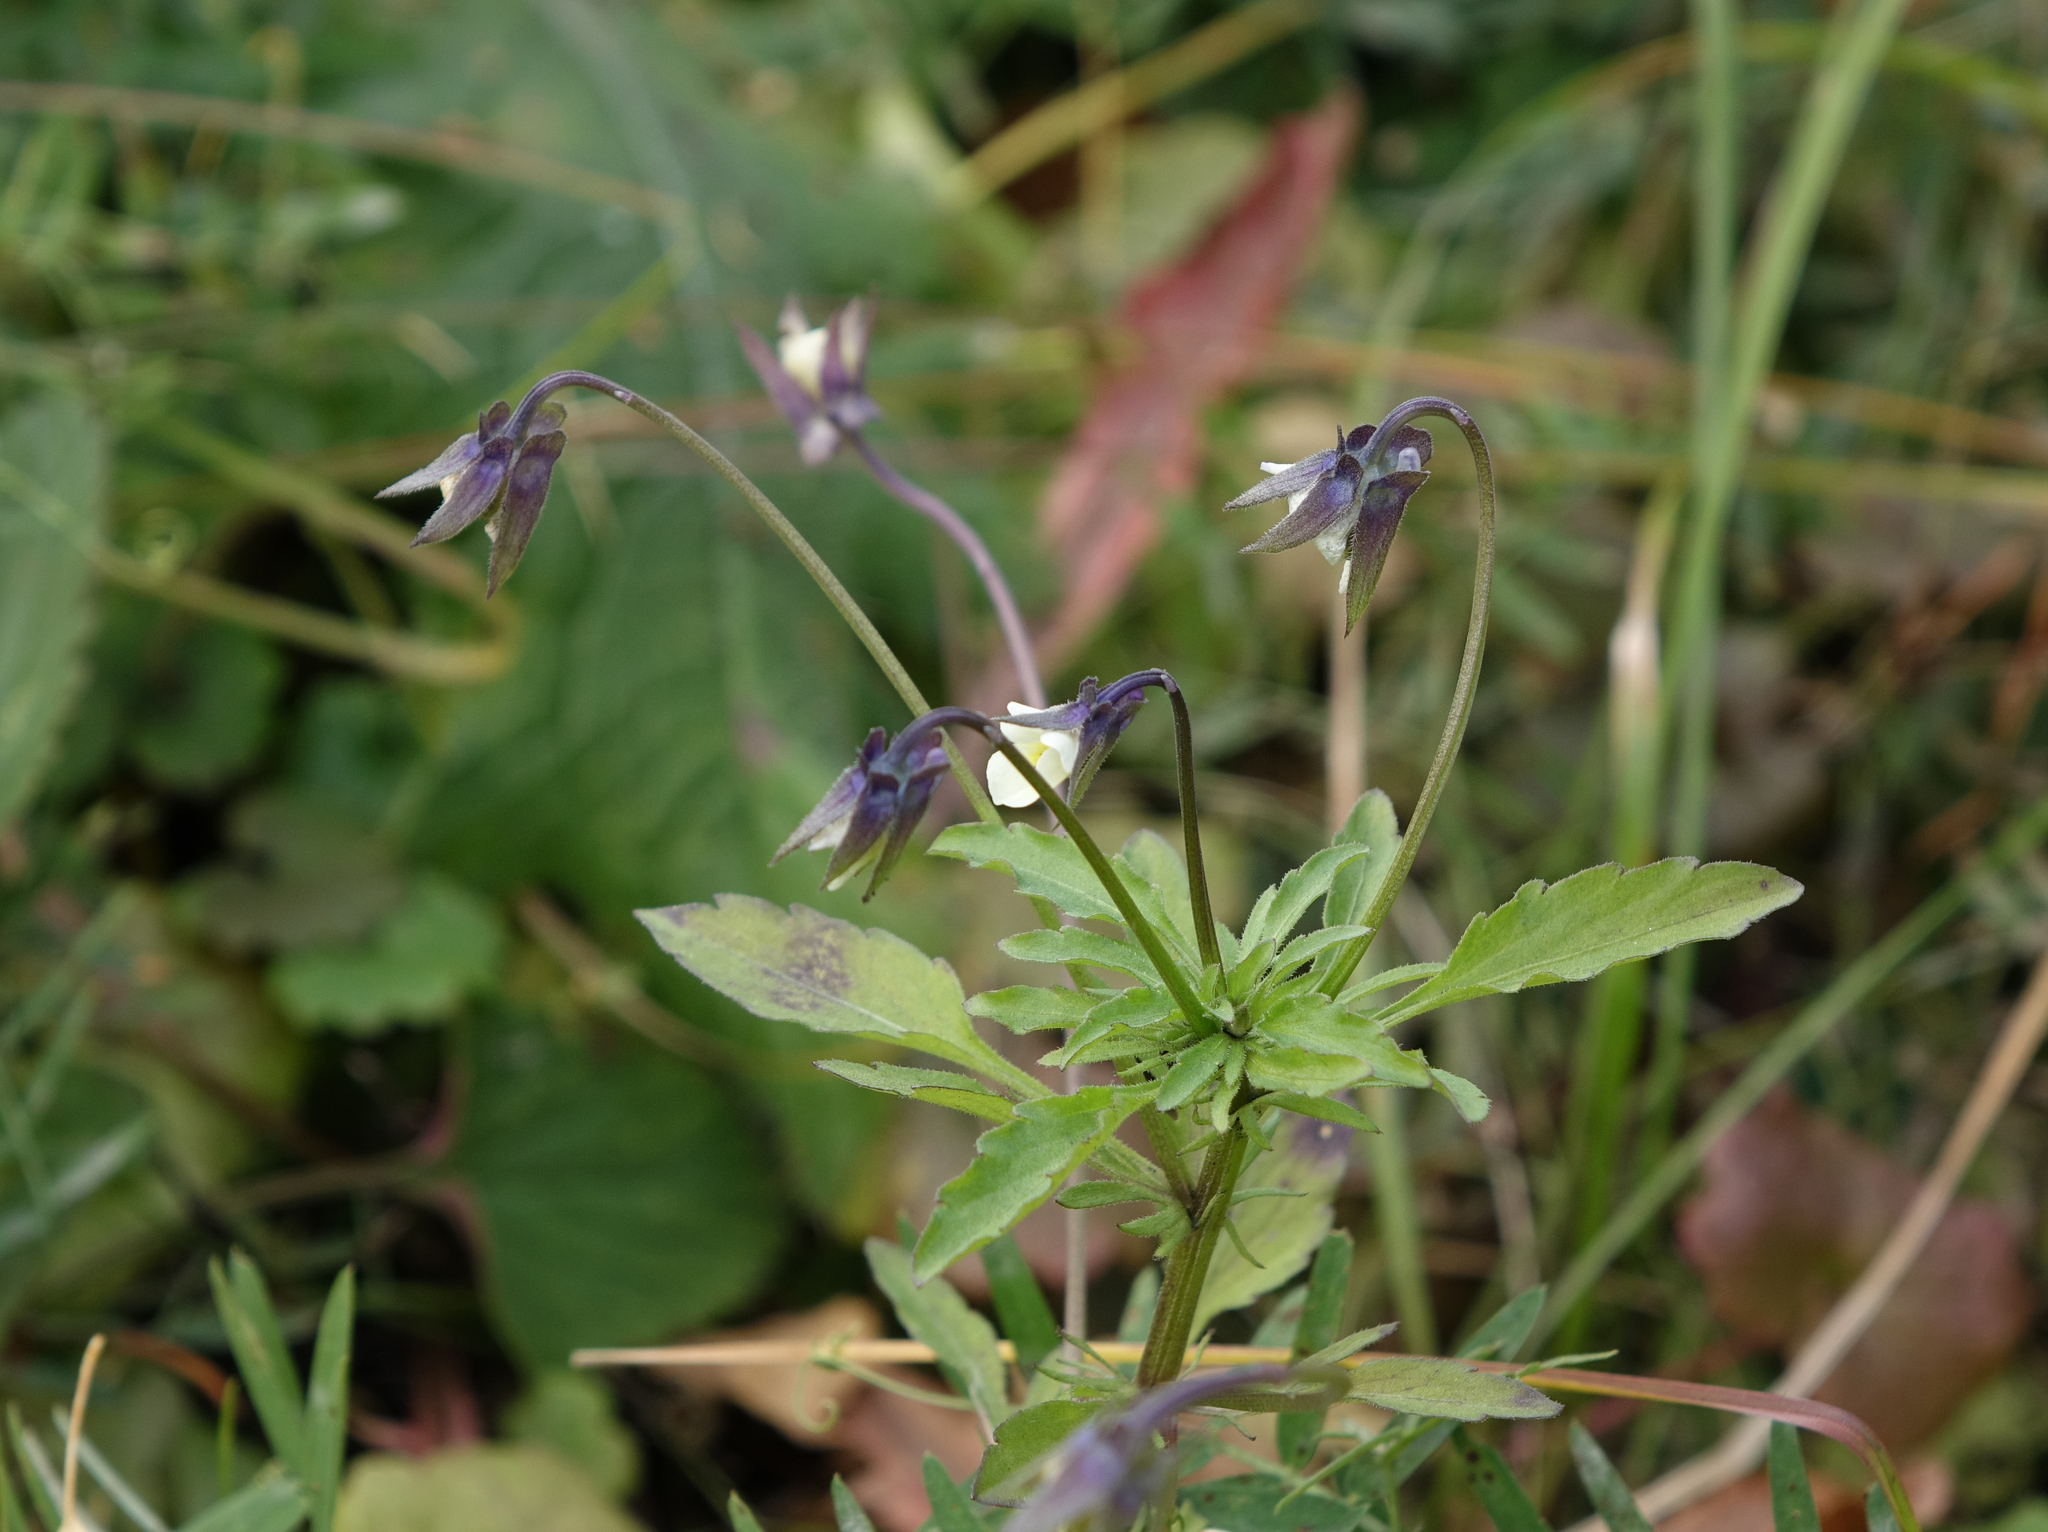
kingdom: Plantae
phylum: Tracheophyta
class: Magnoliopsida
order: Malpighiales
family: Violaceae
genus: Viola
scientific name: Viola arvensis
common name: Field pansy
